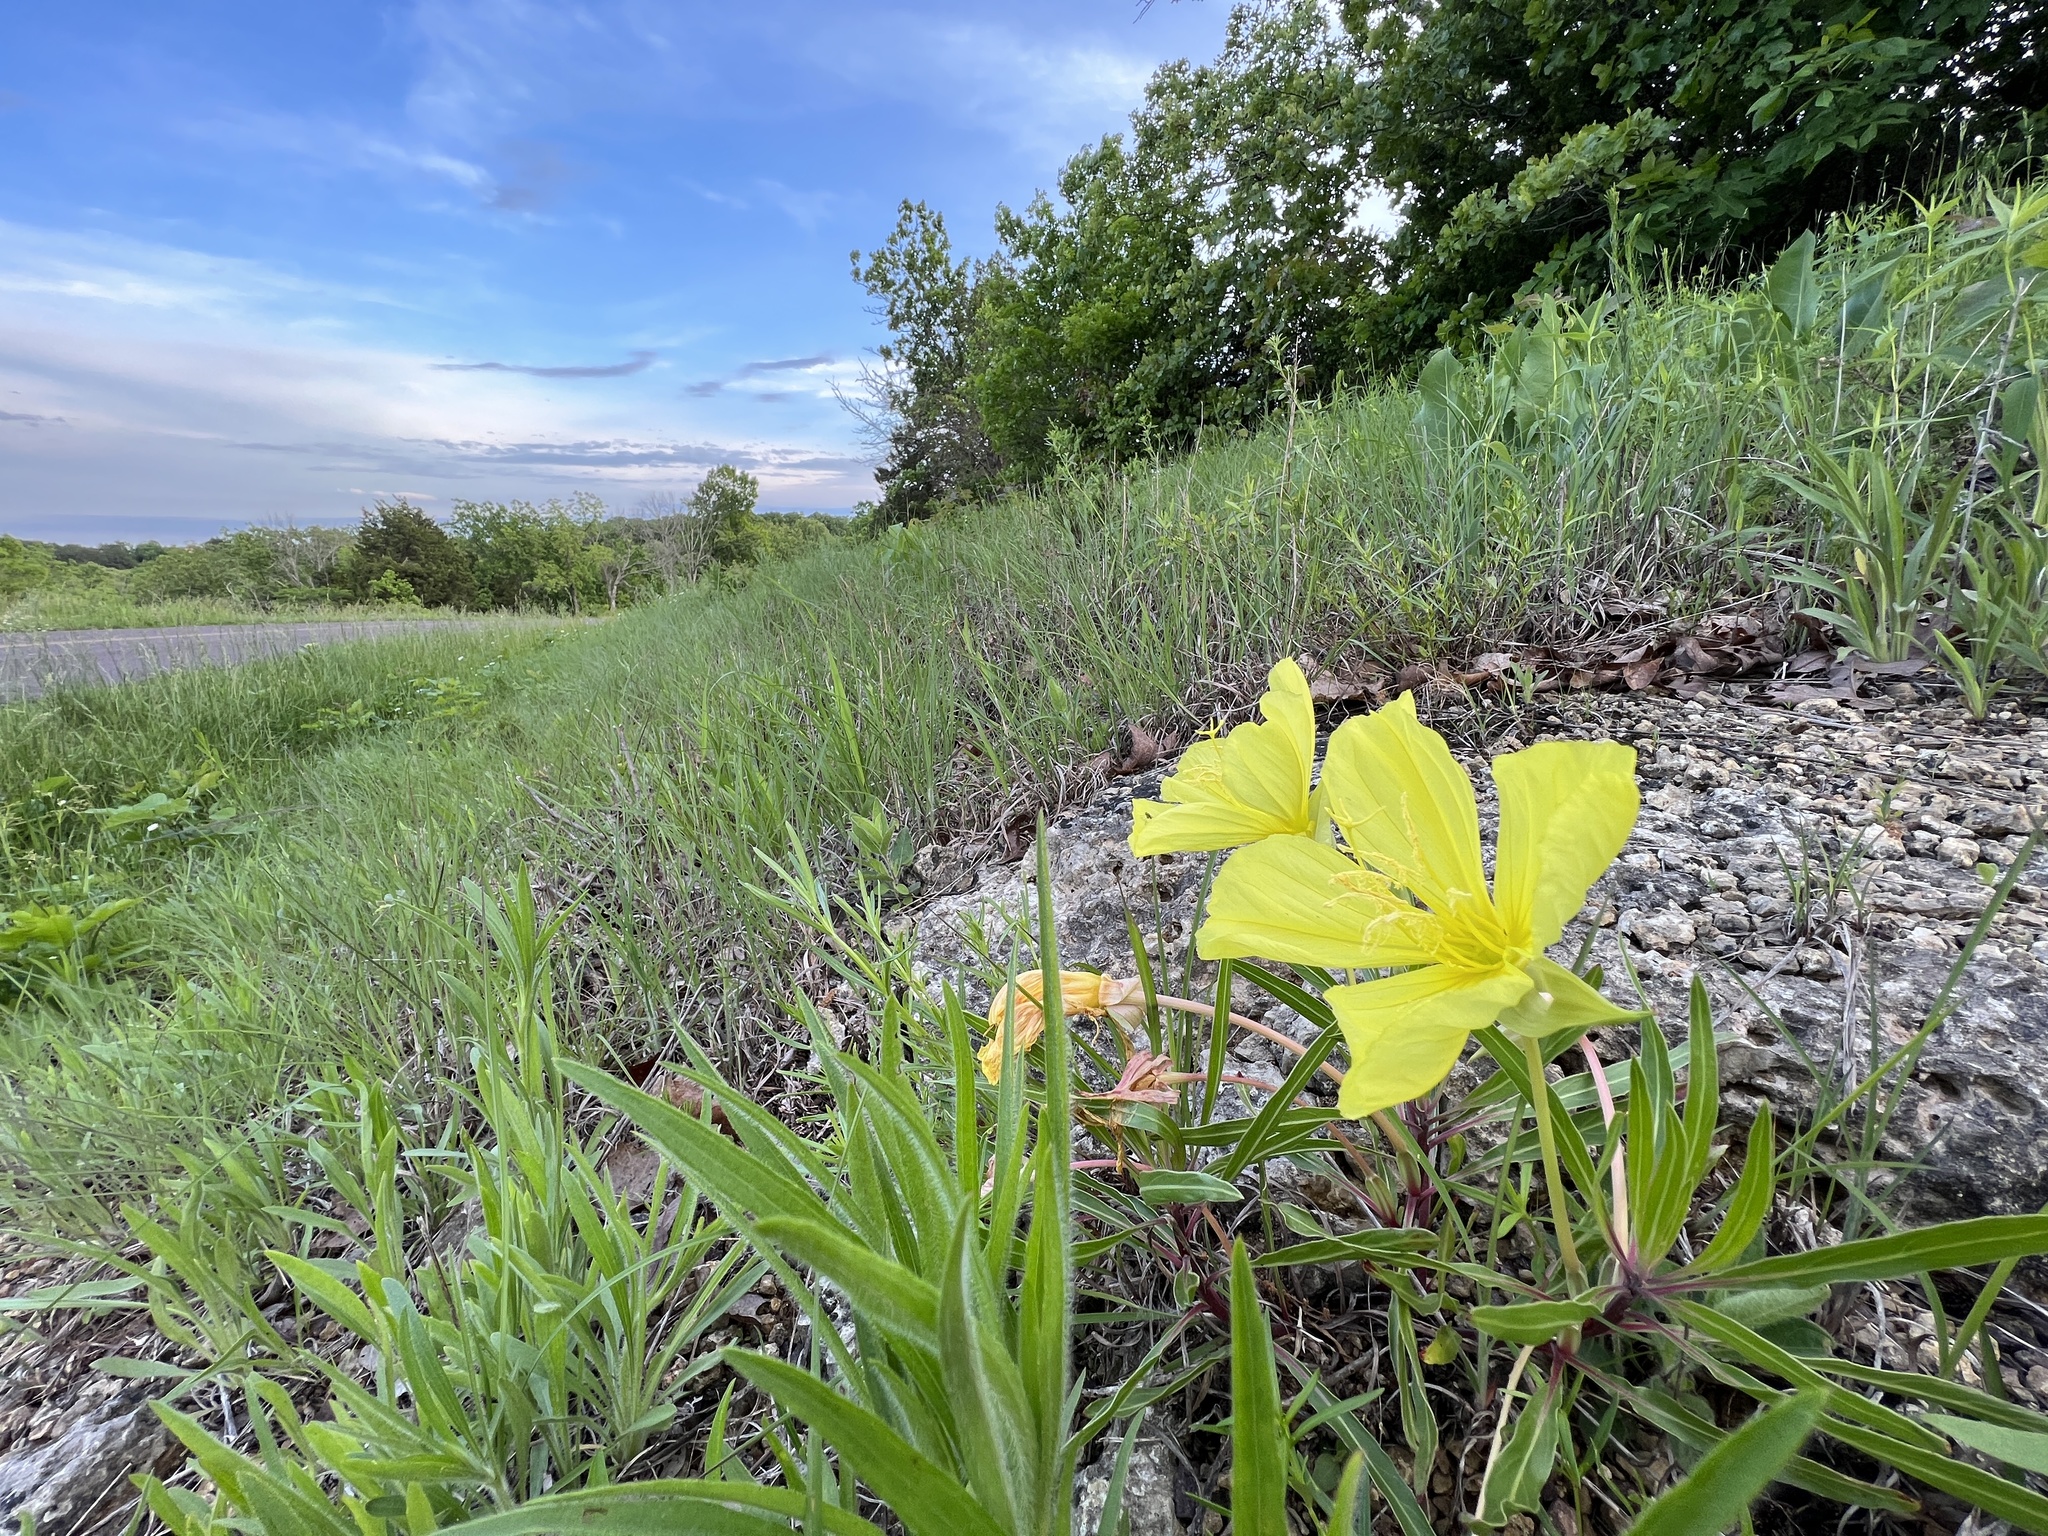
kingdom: Plantae
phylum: Tracheophyta
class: Magnoliopsida
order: Myrtales
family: Onagraceae
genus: Oenothera
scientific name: Oenothera macrocarpa
